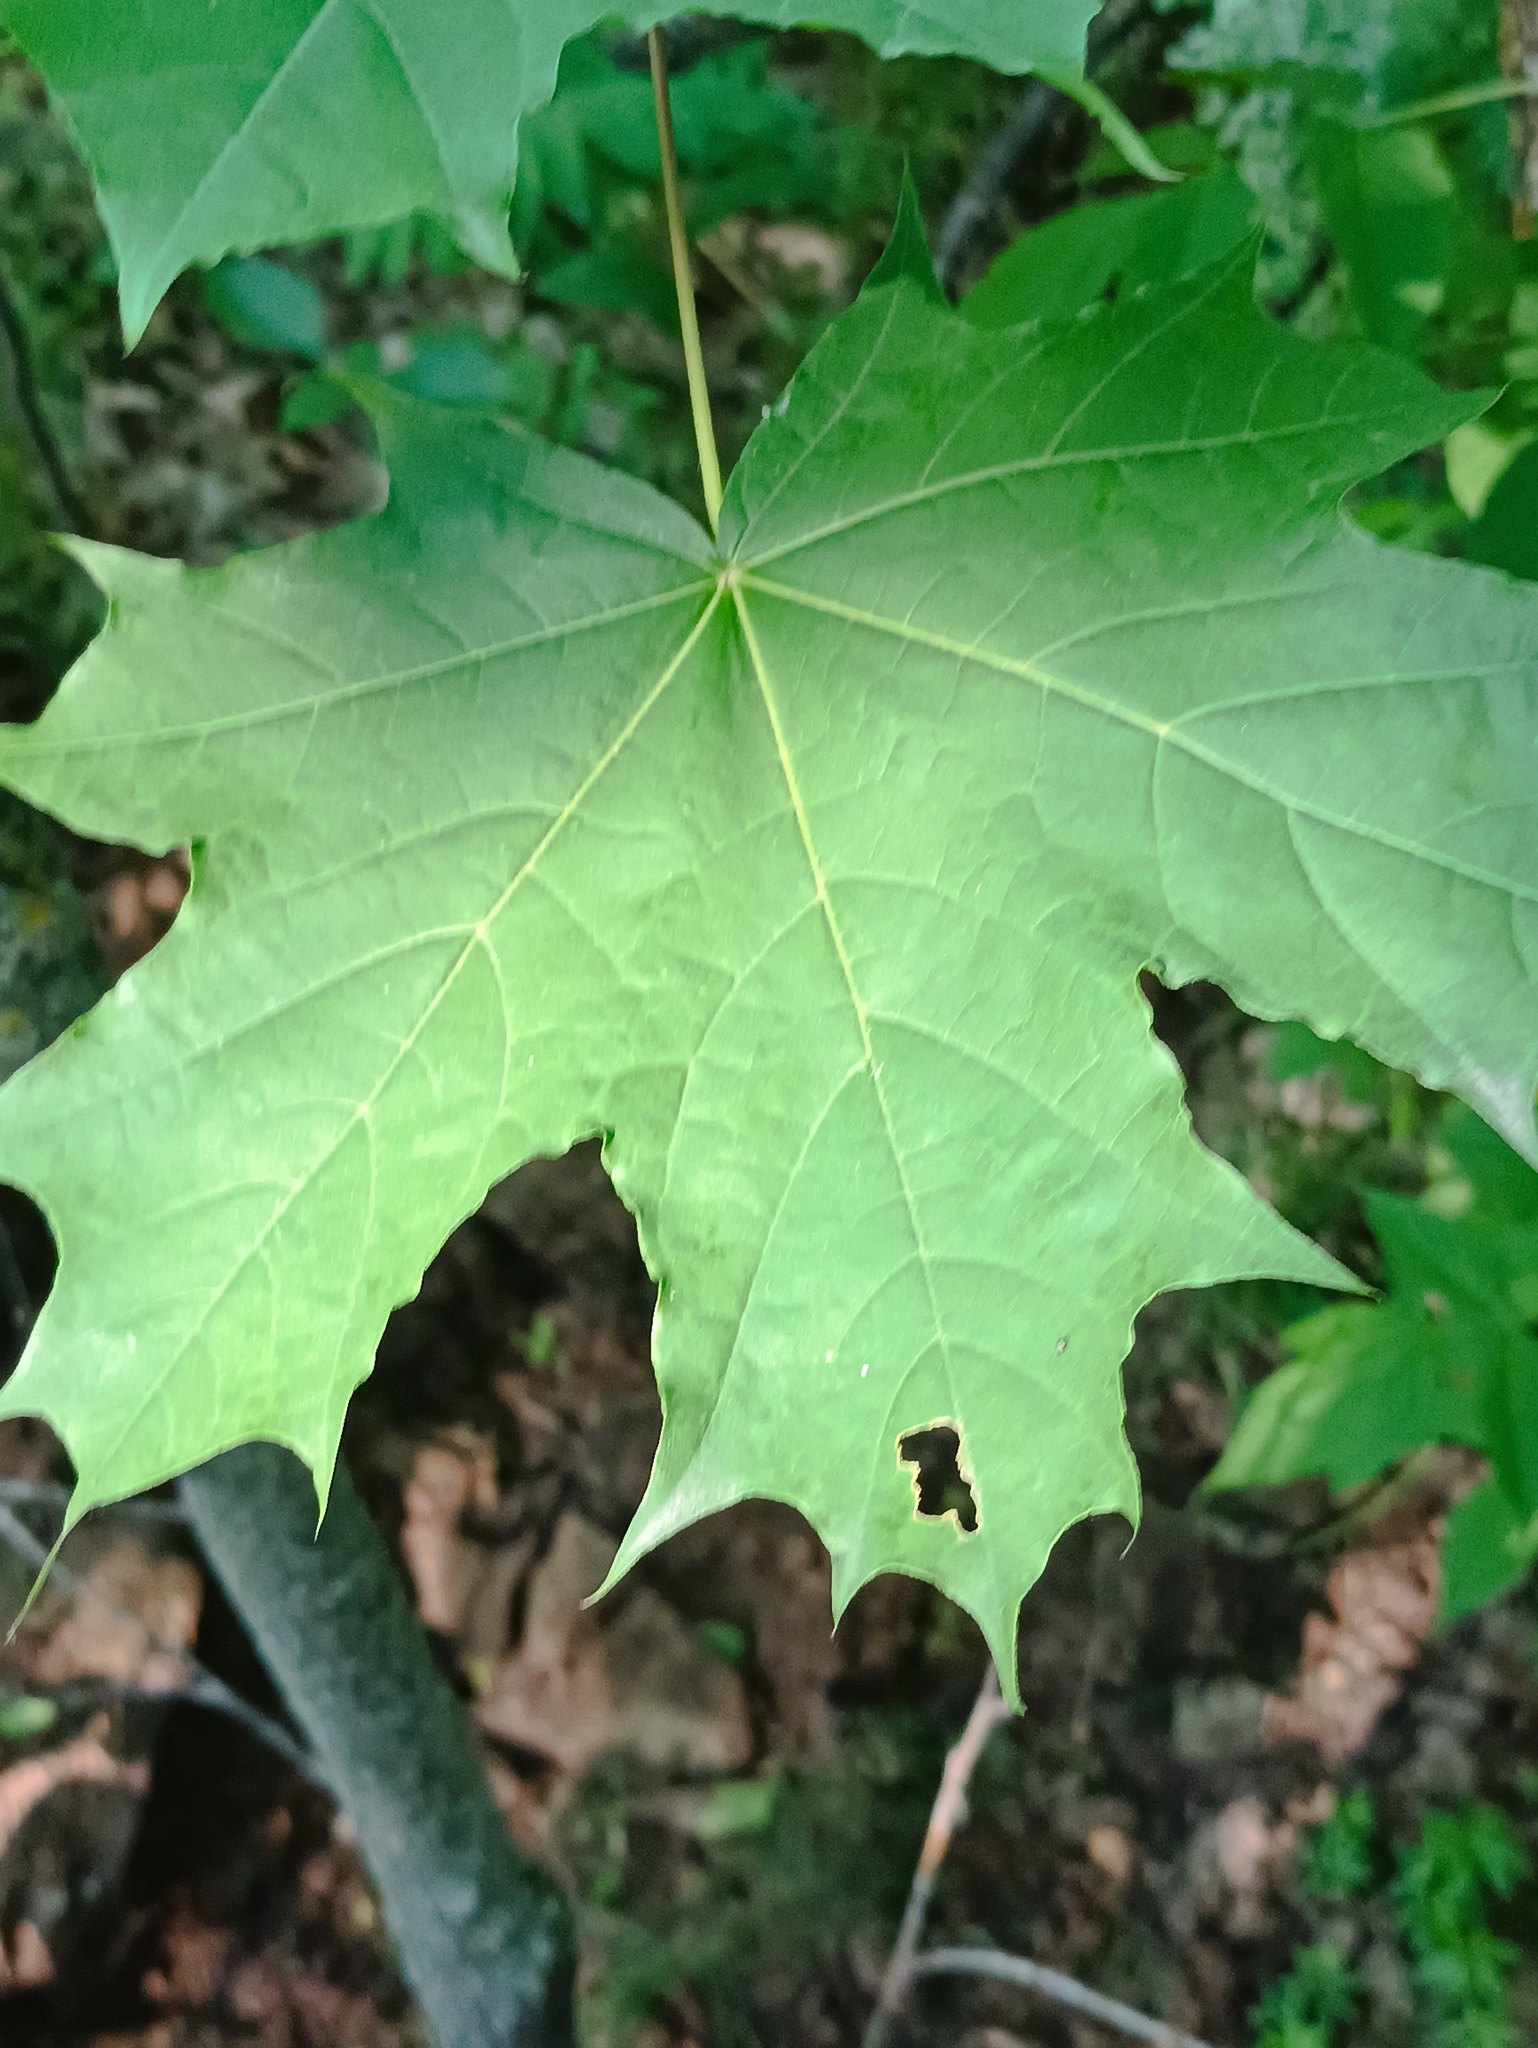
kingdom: Plantae
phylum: Tracheophyta
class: Magnoliopsida
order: Sapindales
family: Sapindaceae
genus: Acer
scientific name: Acer platanoides
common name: Norway maple
